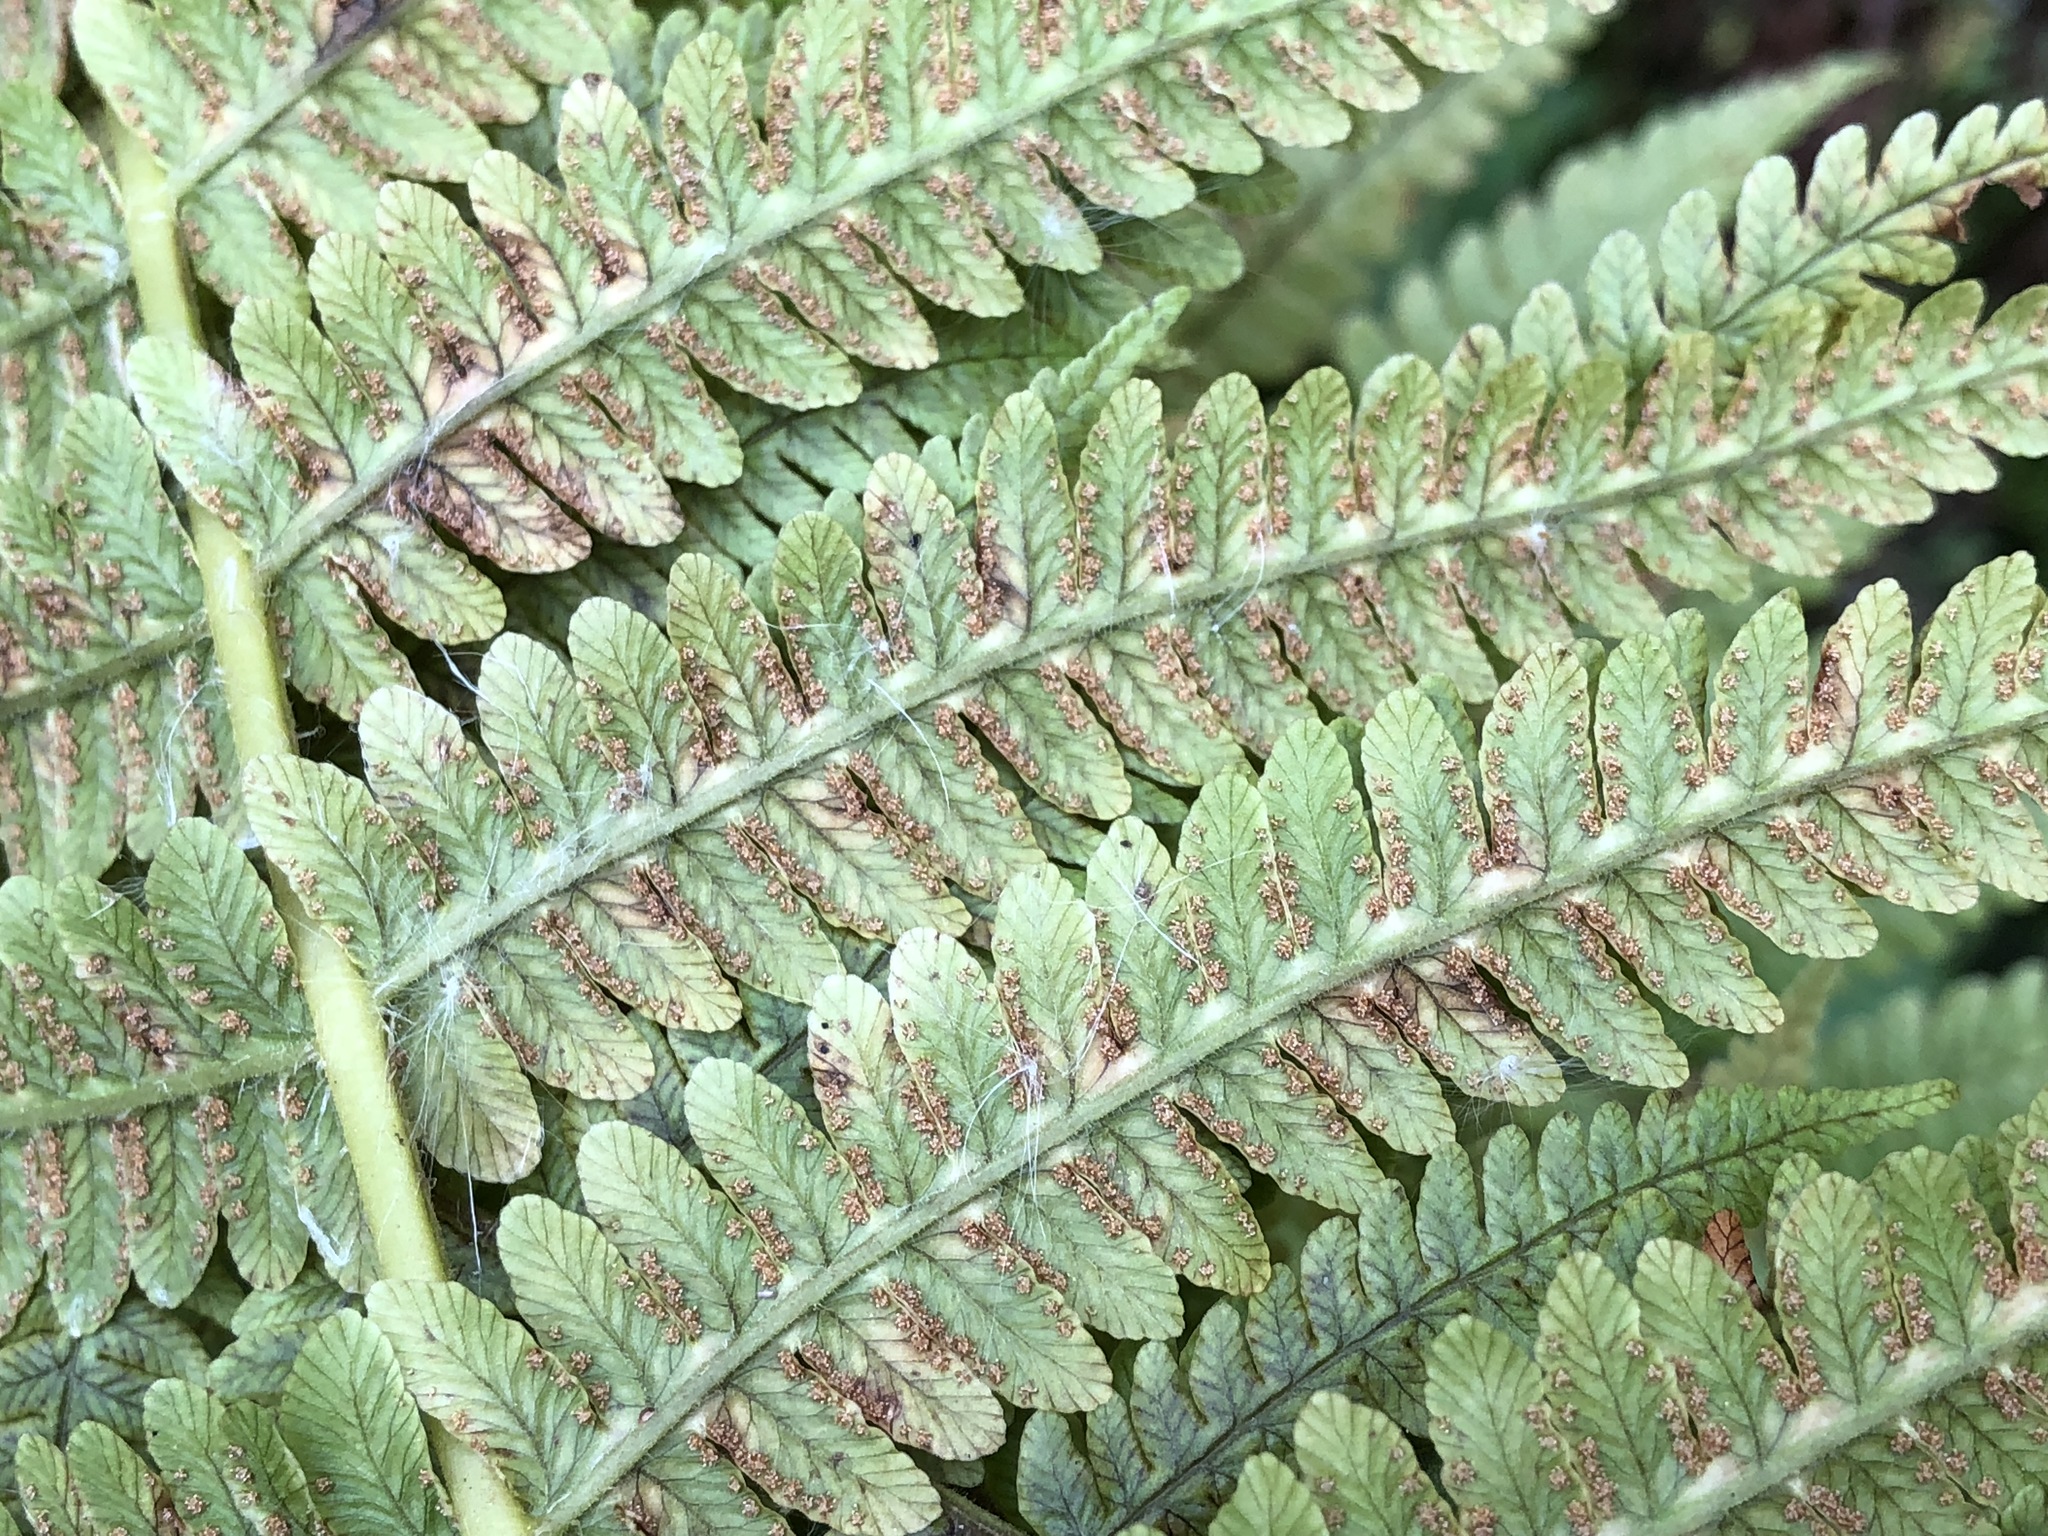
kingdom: Plantae
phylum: Tracheophyta
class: Polypodiopsida
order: Polypodiales
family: Thelypteridaceae
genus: Oreopteris
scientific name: Oreopteris limbosperma
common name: Lemon-scented fern
